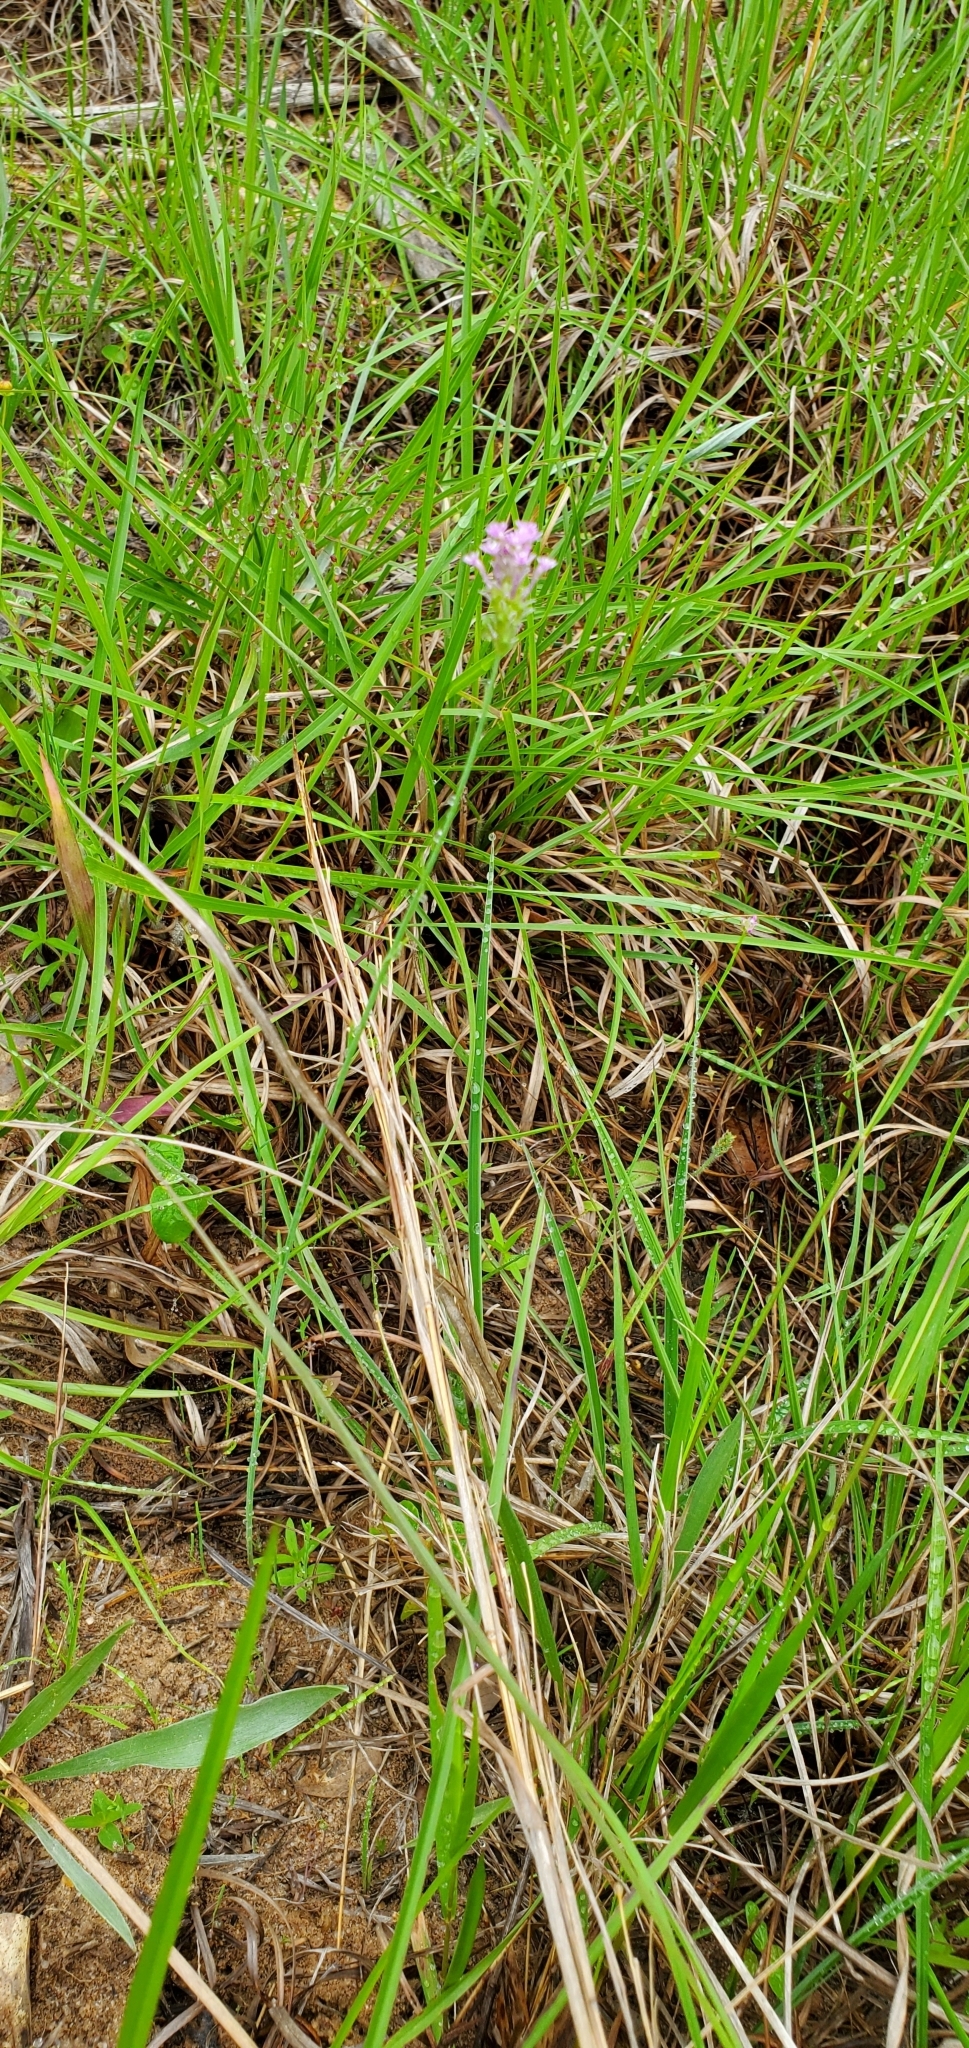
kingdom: Plantae
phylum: Tracheophyta
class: Magnoliopsida
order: Fabales
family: Polygalaceae
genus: Polygala
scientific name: Polygala incarnata
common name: Pink milkwort
